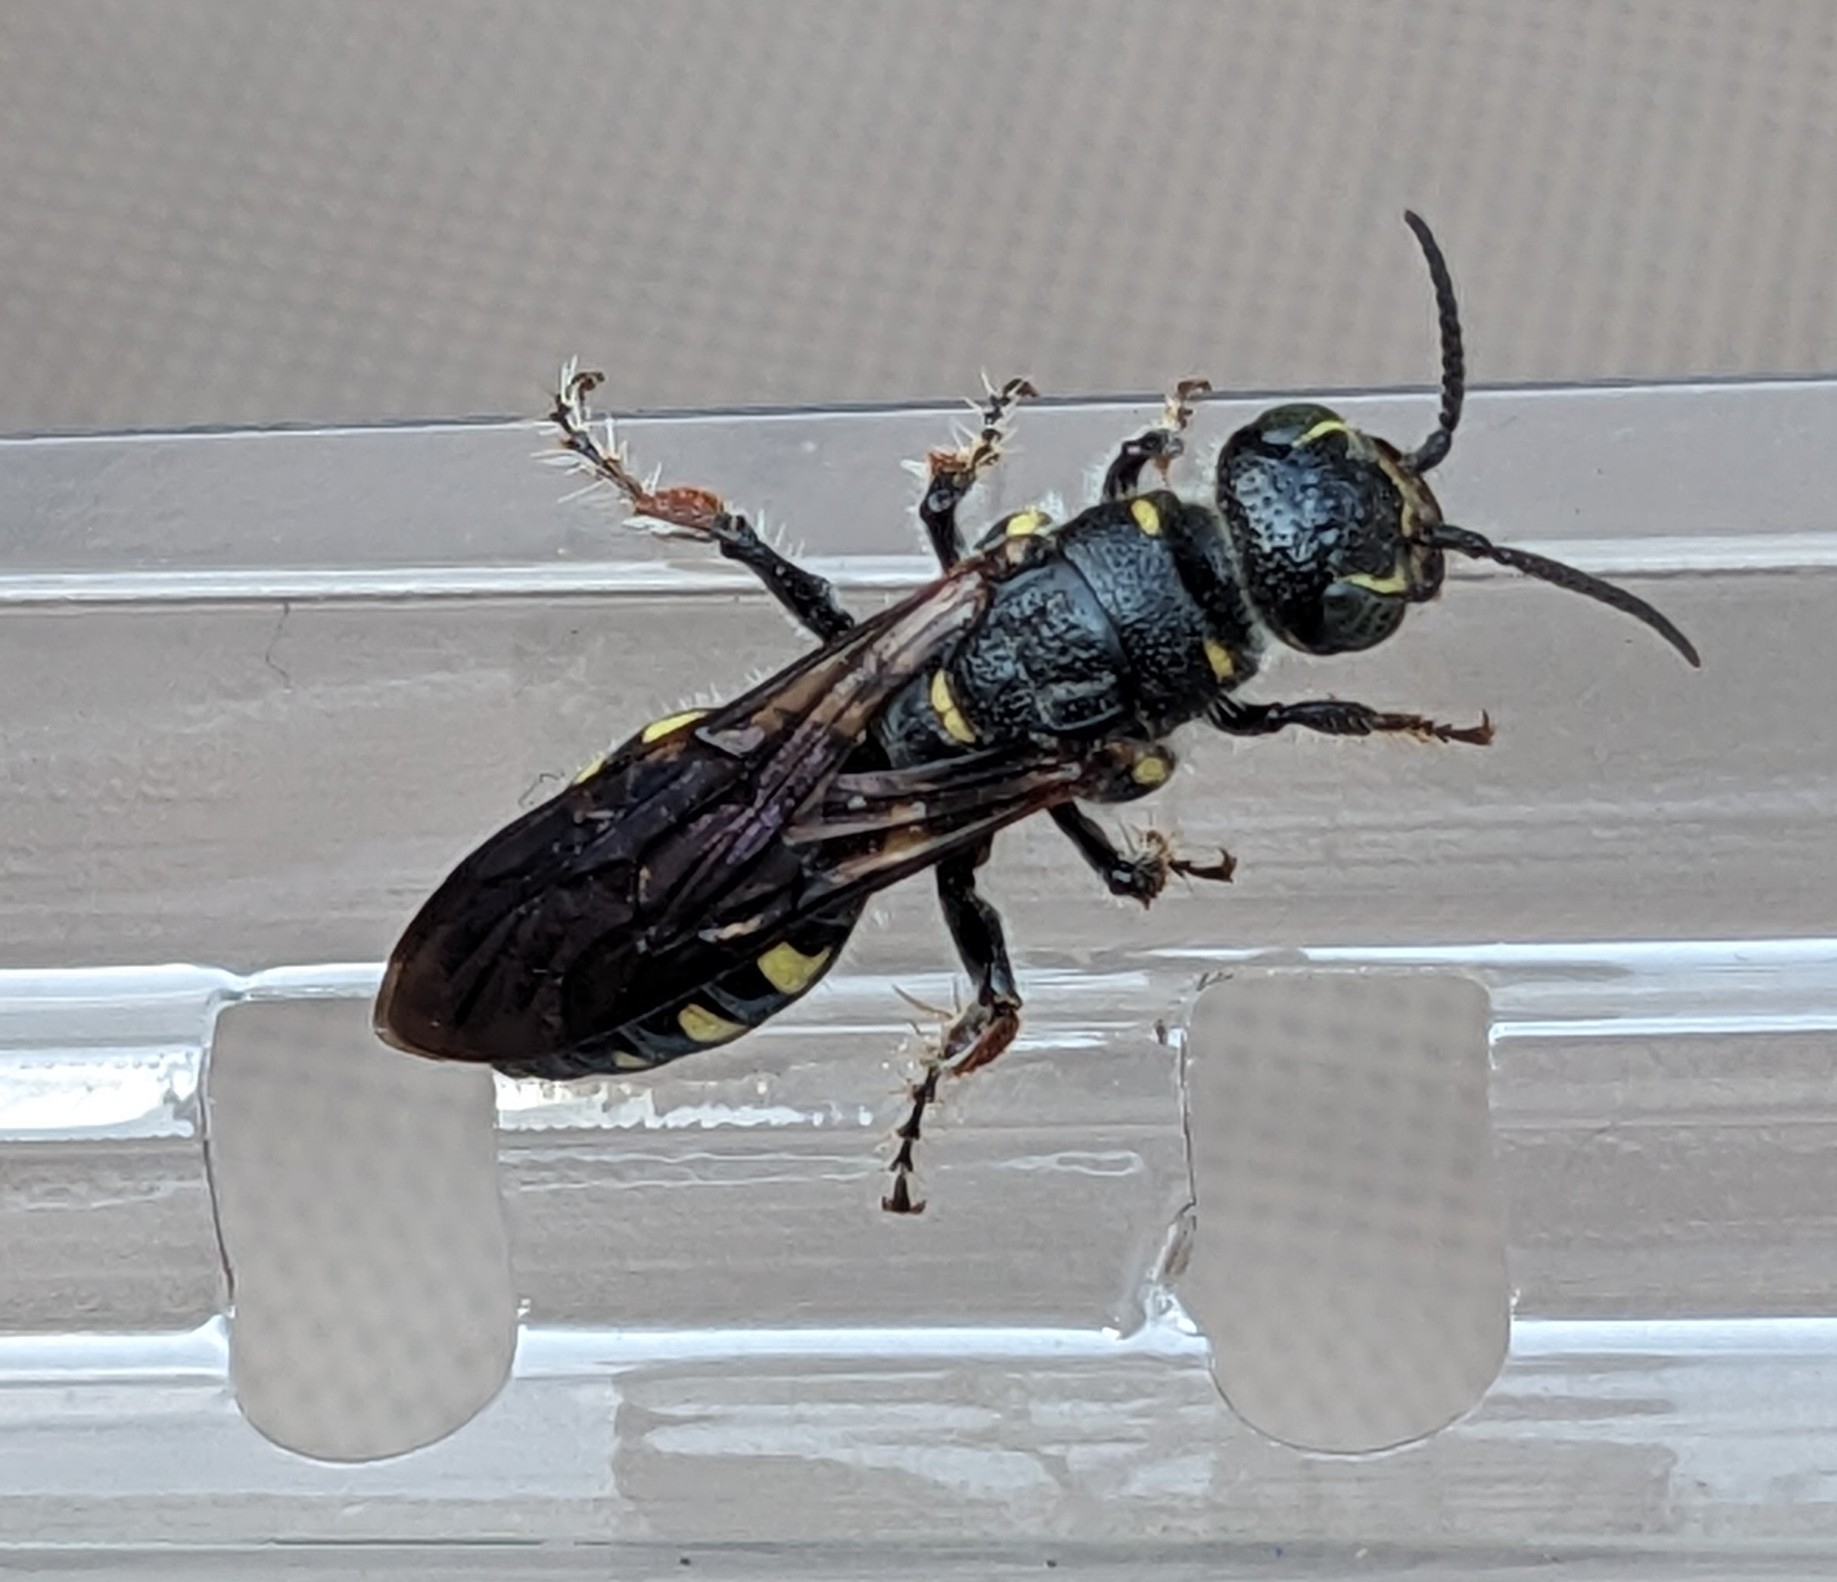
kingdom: Animalia
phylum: Arthropoda
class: Insecta
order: Hymenoptera
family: Tiphiidae
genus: Myzinum
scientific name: Myzinum obscurum
